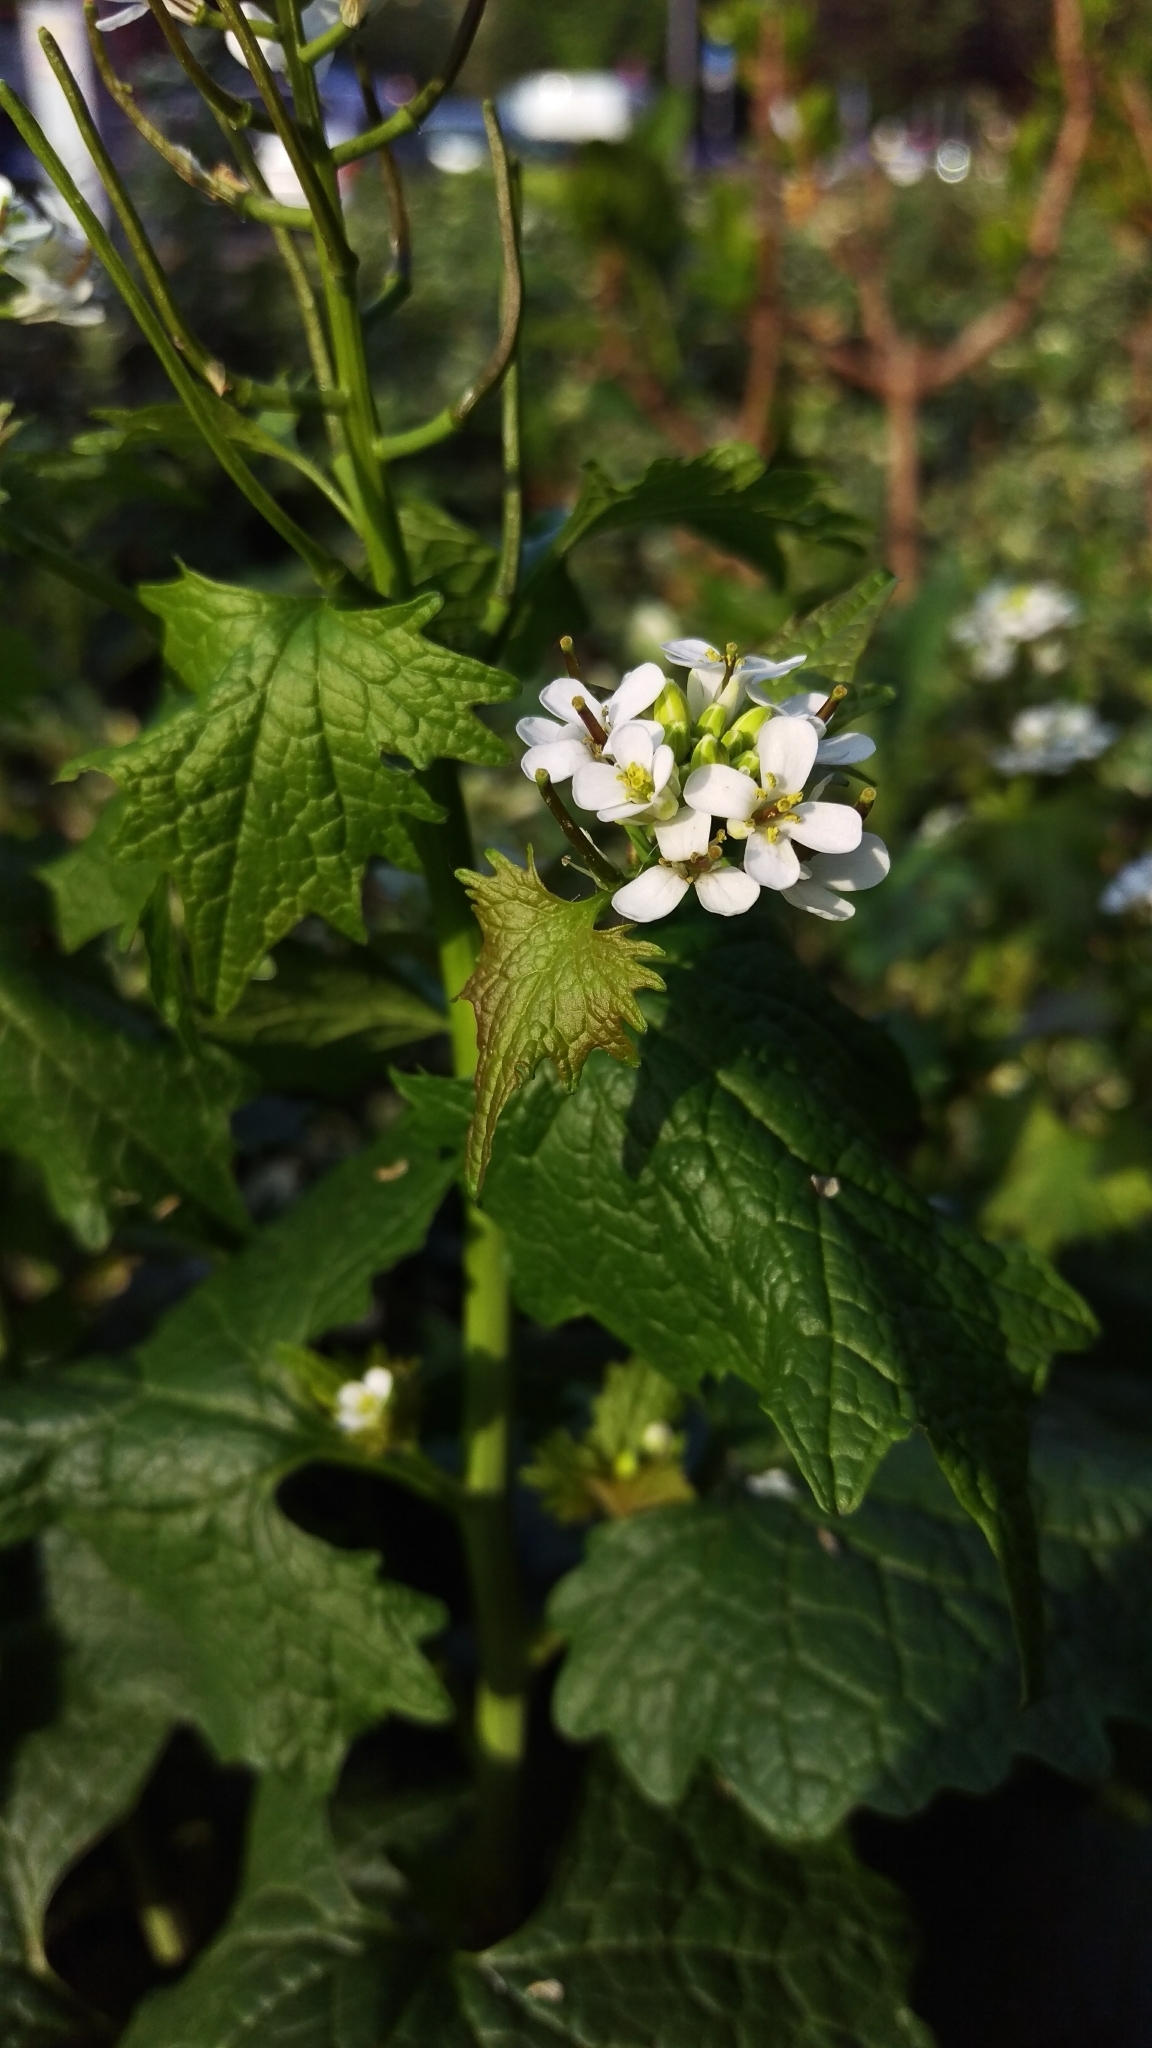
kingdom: Plantae
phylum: Tracheophyta
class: Magnoliopsida
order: Brassicales
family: Brassicaceae
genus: Alliaria
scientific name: Alliaria petiolata
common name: Garlic mustard
